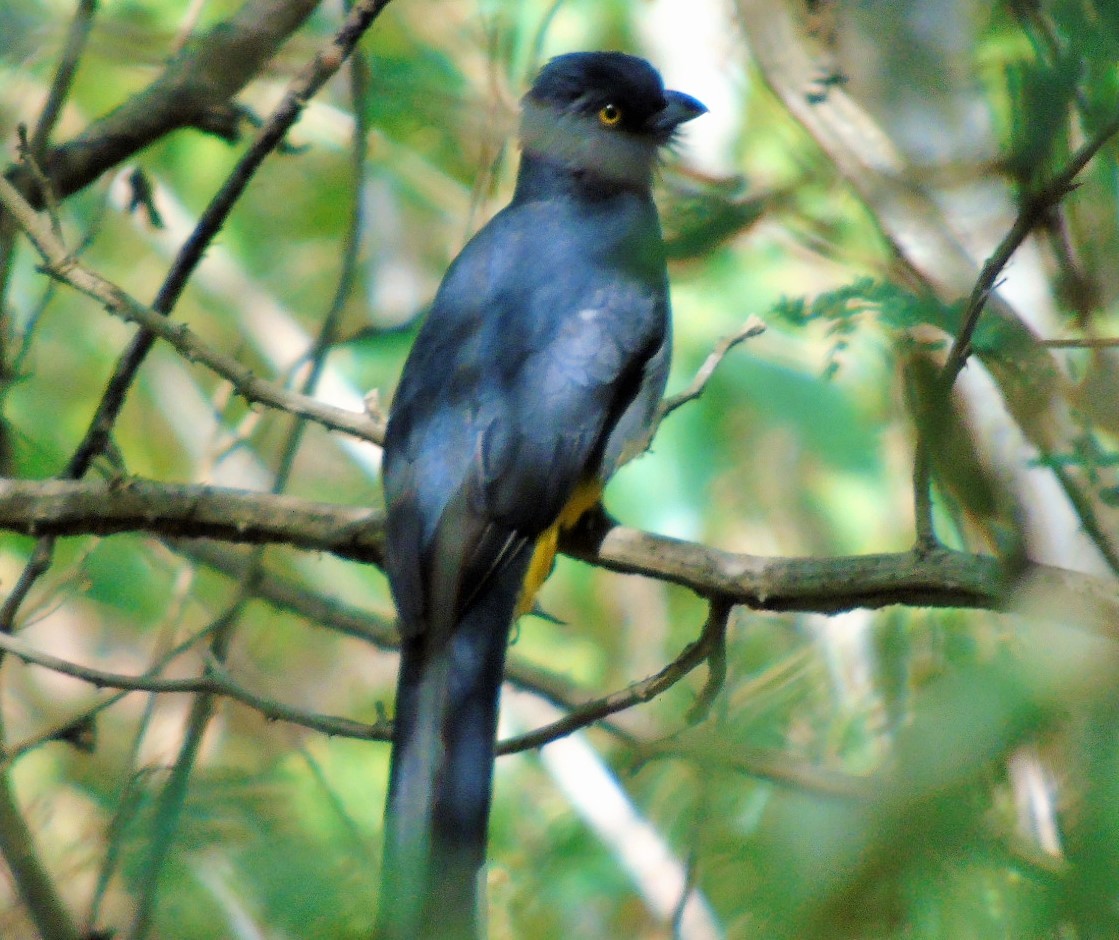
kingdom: Animalia
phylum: Chordata
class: Aves
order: Trogoniformes
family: Trogonidae
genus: Trogon
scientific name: Trogon citreolus
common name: Citreoline trogon
